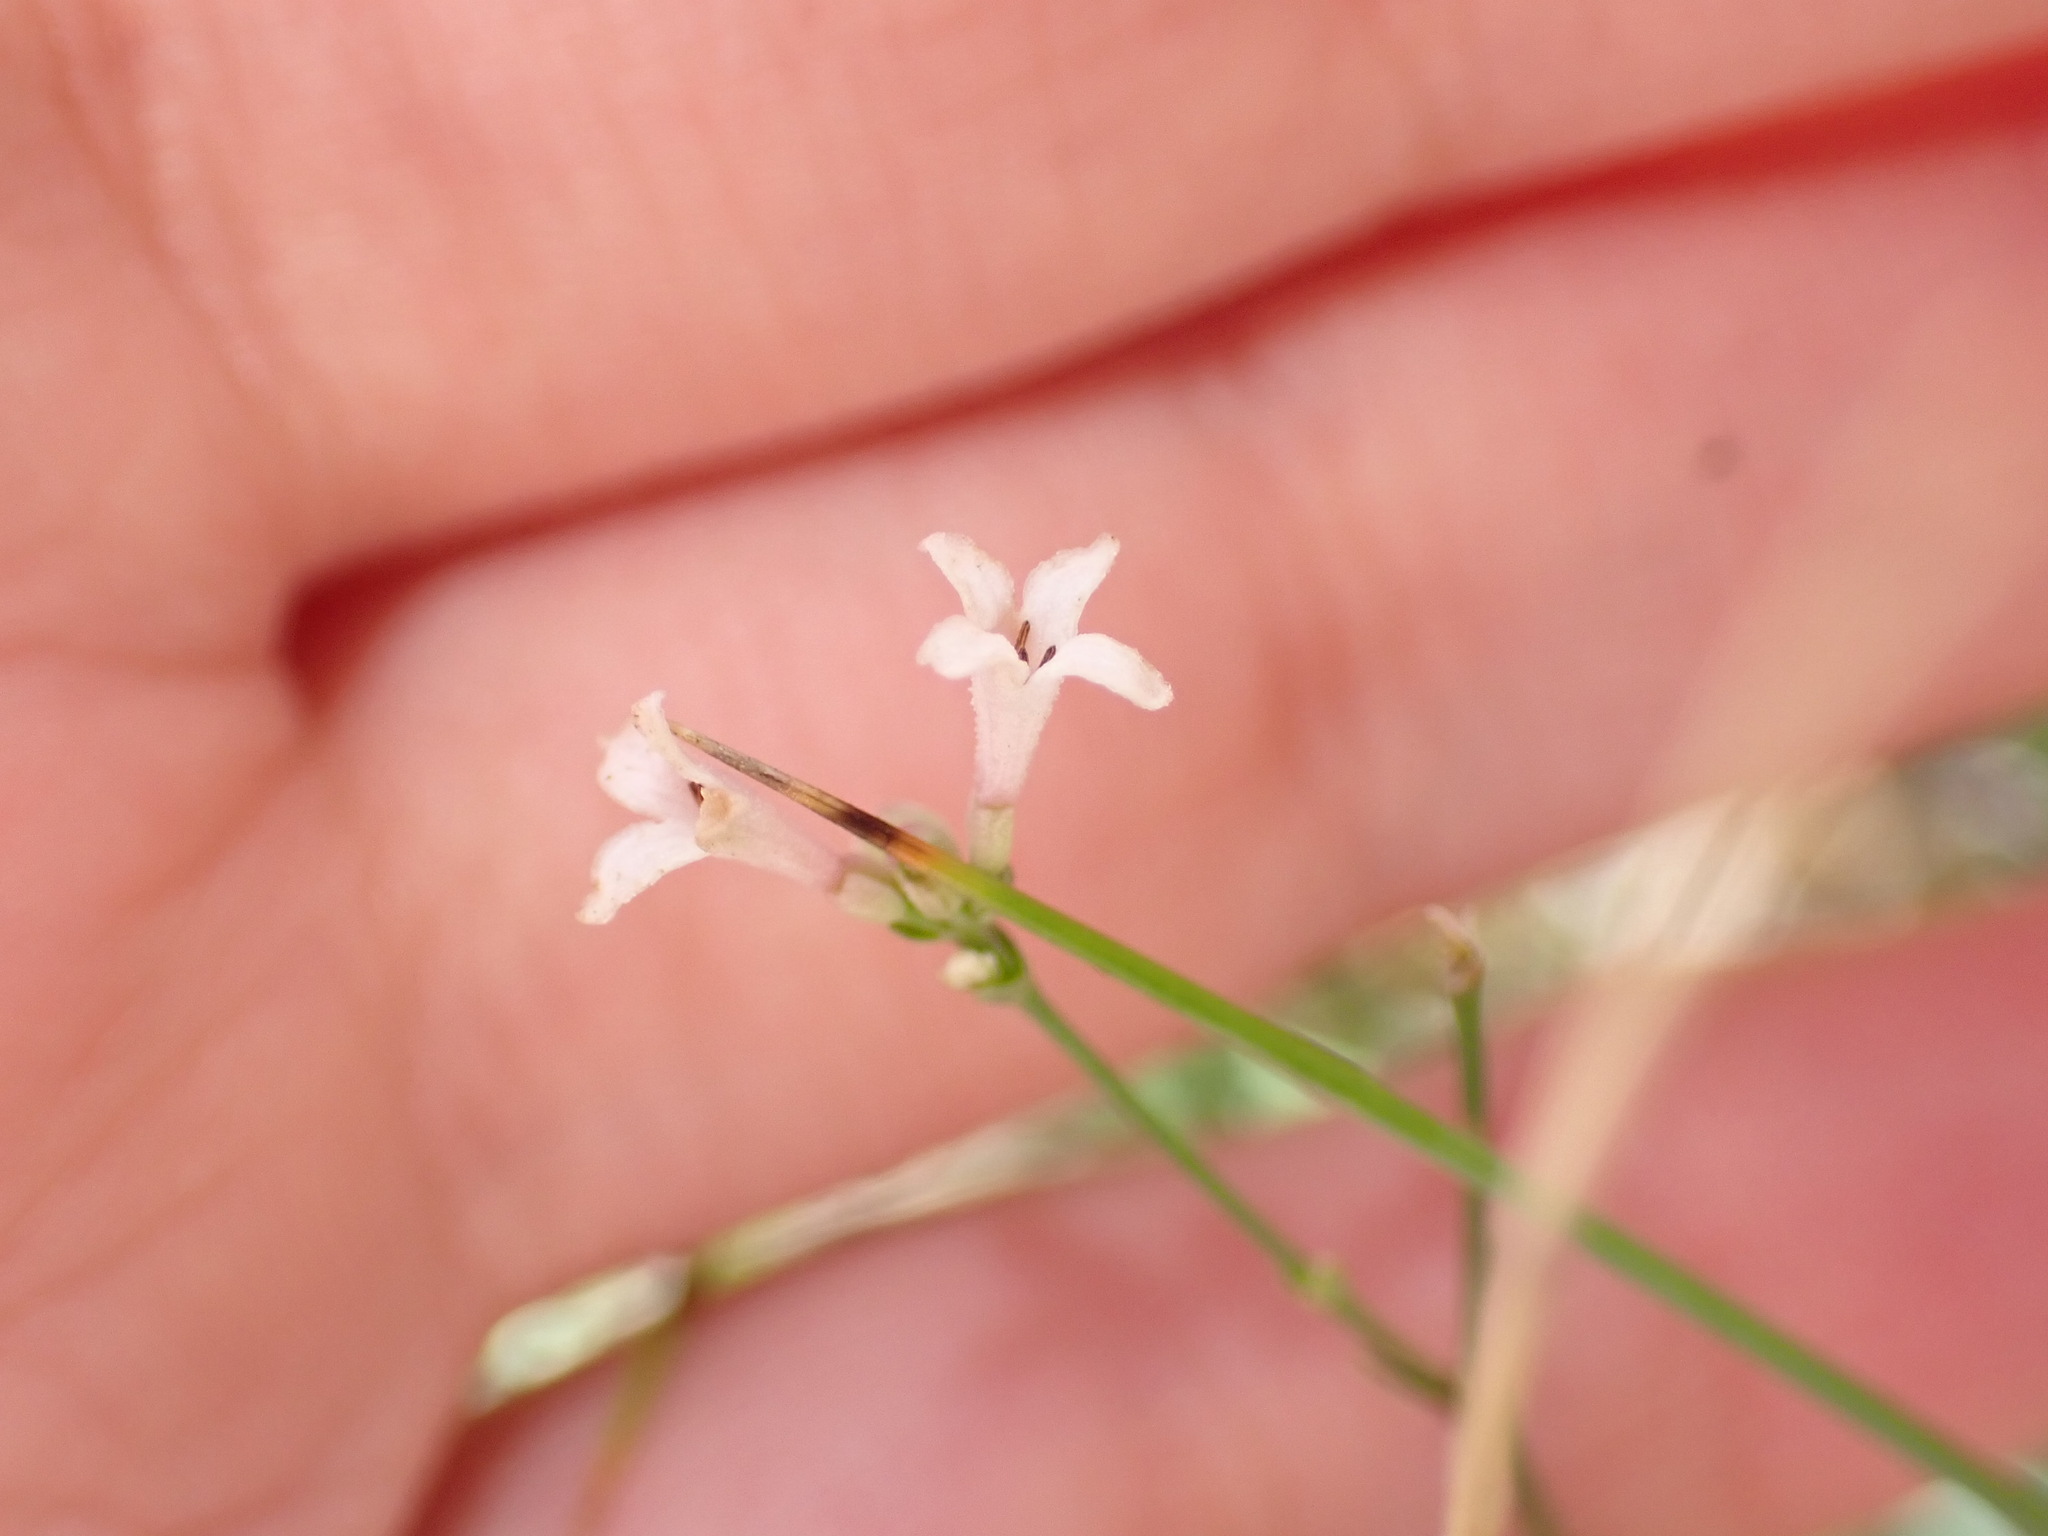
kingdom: Plantae
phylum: Tracheophyta
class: Magnoliopsida
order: Gentianales
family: Rubiaceae
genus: Cynanchica
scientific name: Cynanchica pyrenaica
